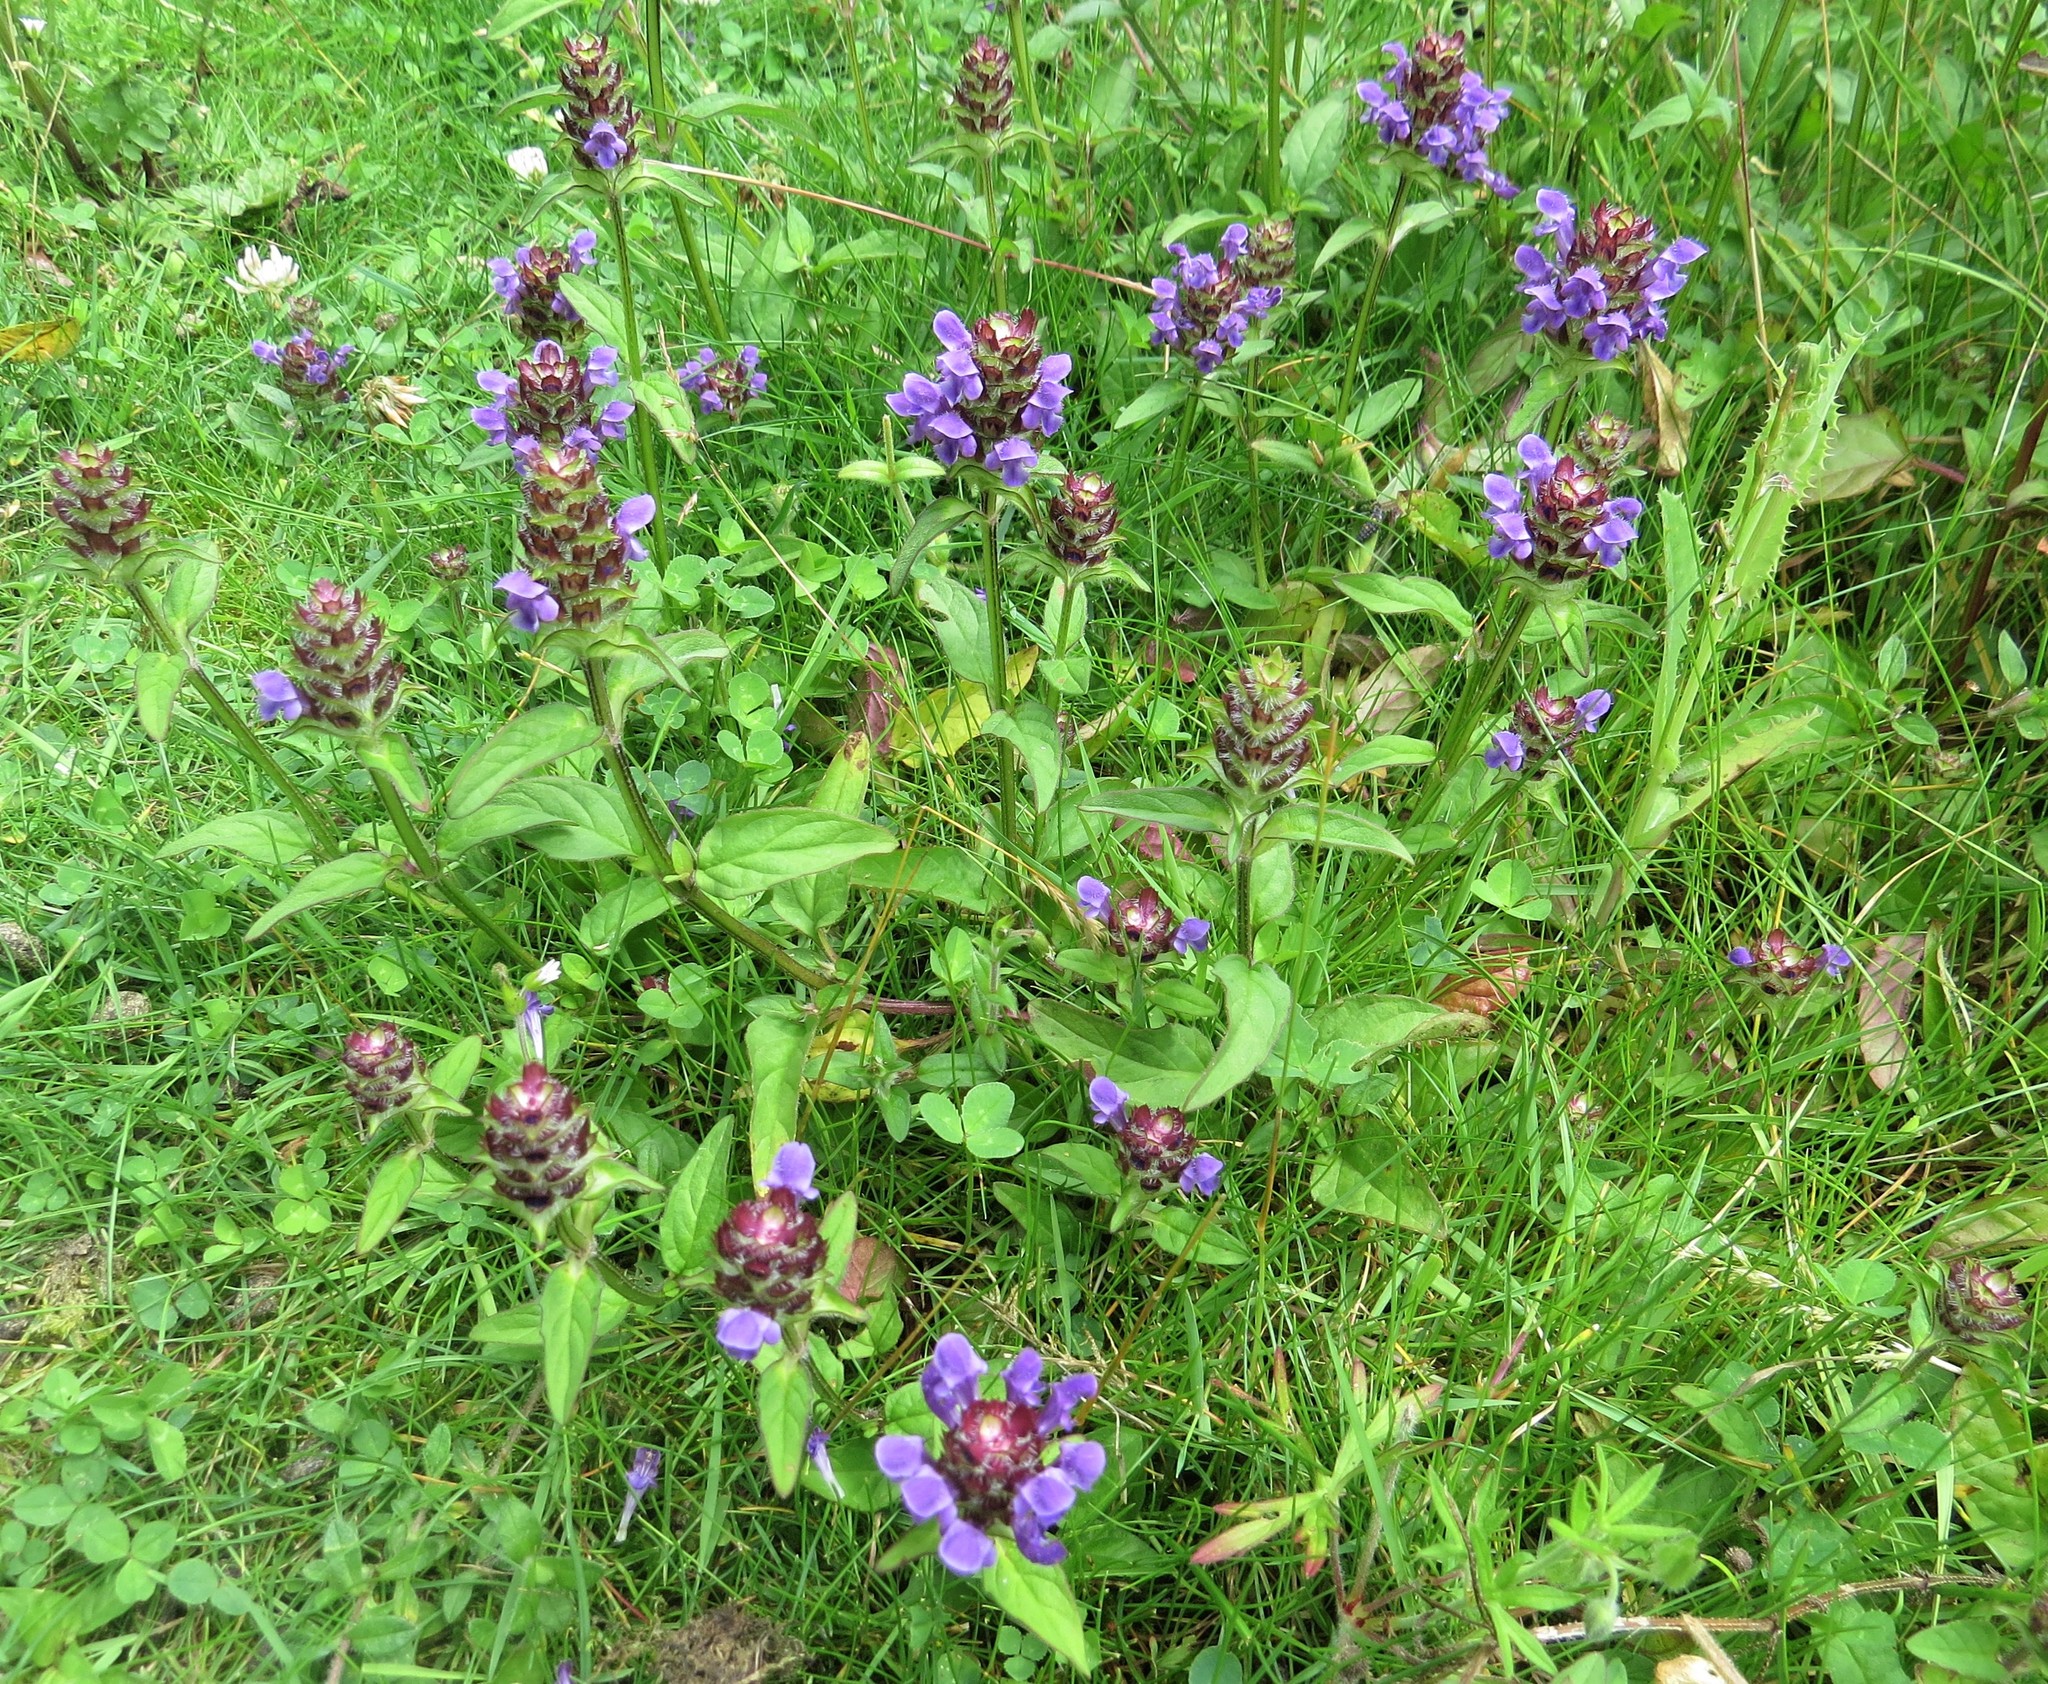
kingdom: Plantae
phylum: Tracheophyta
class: Magnoliopsida
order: Lamiales
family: Lamiaceae
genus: Prunella
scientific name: Prunella vulgaris
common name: Heal-all
